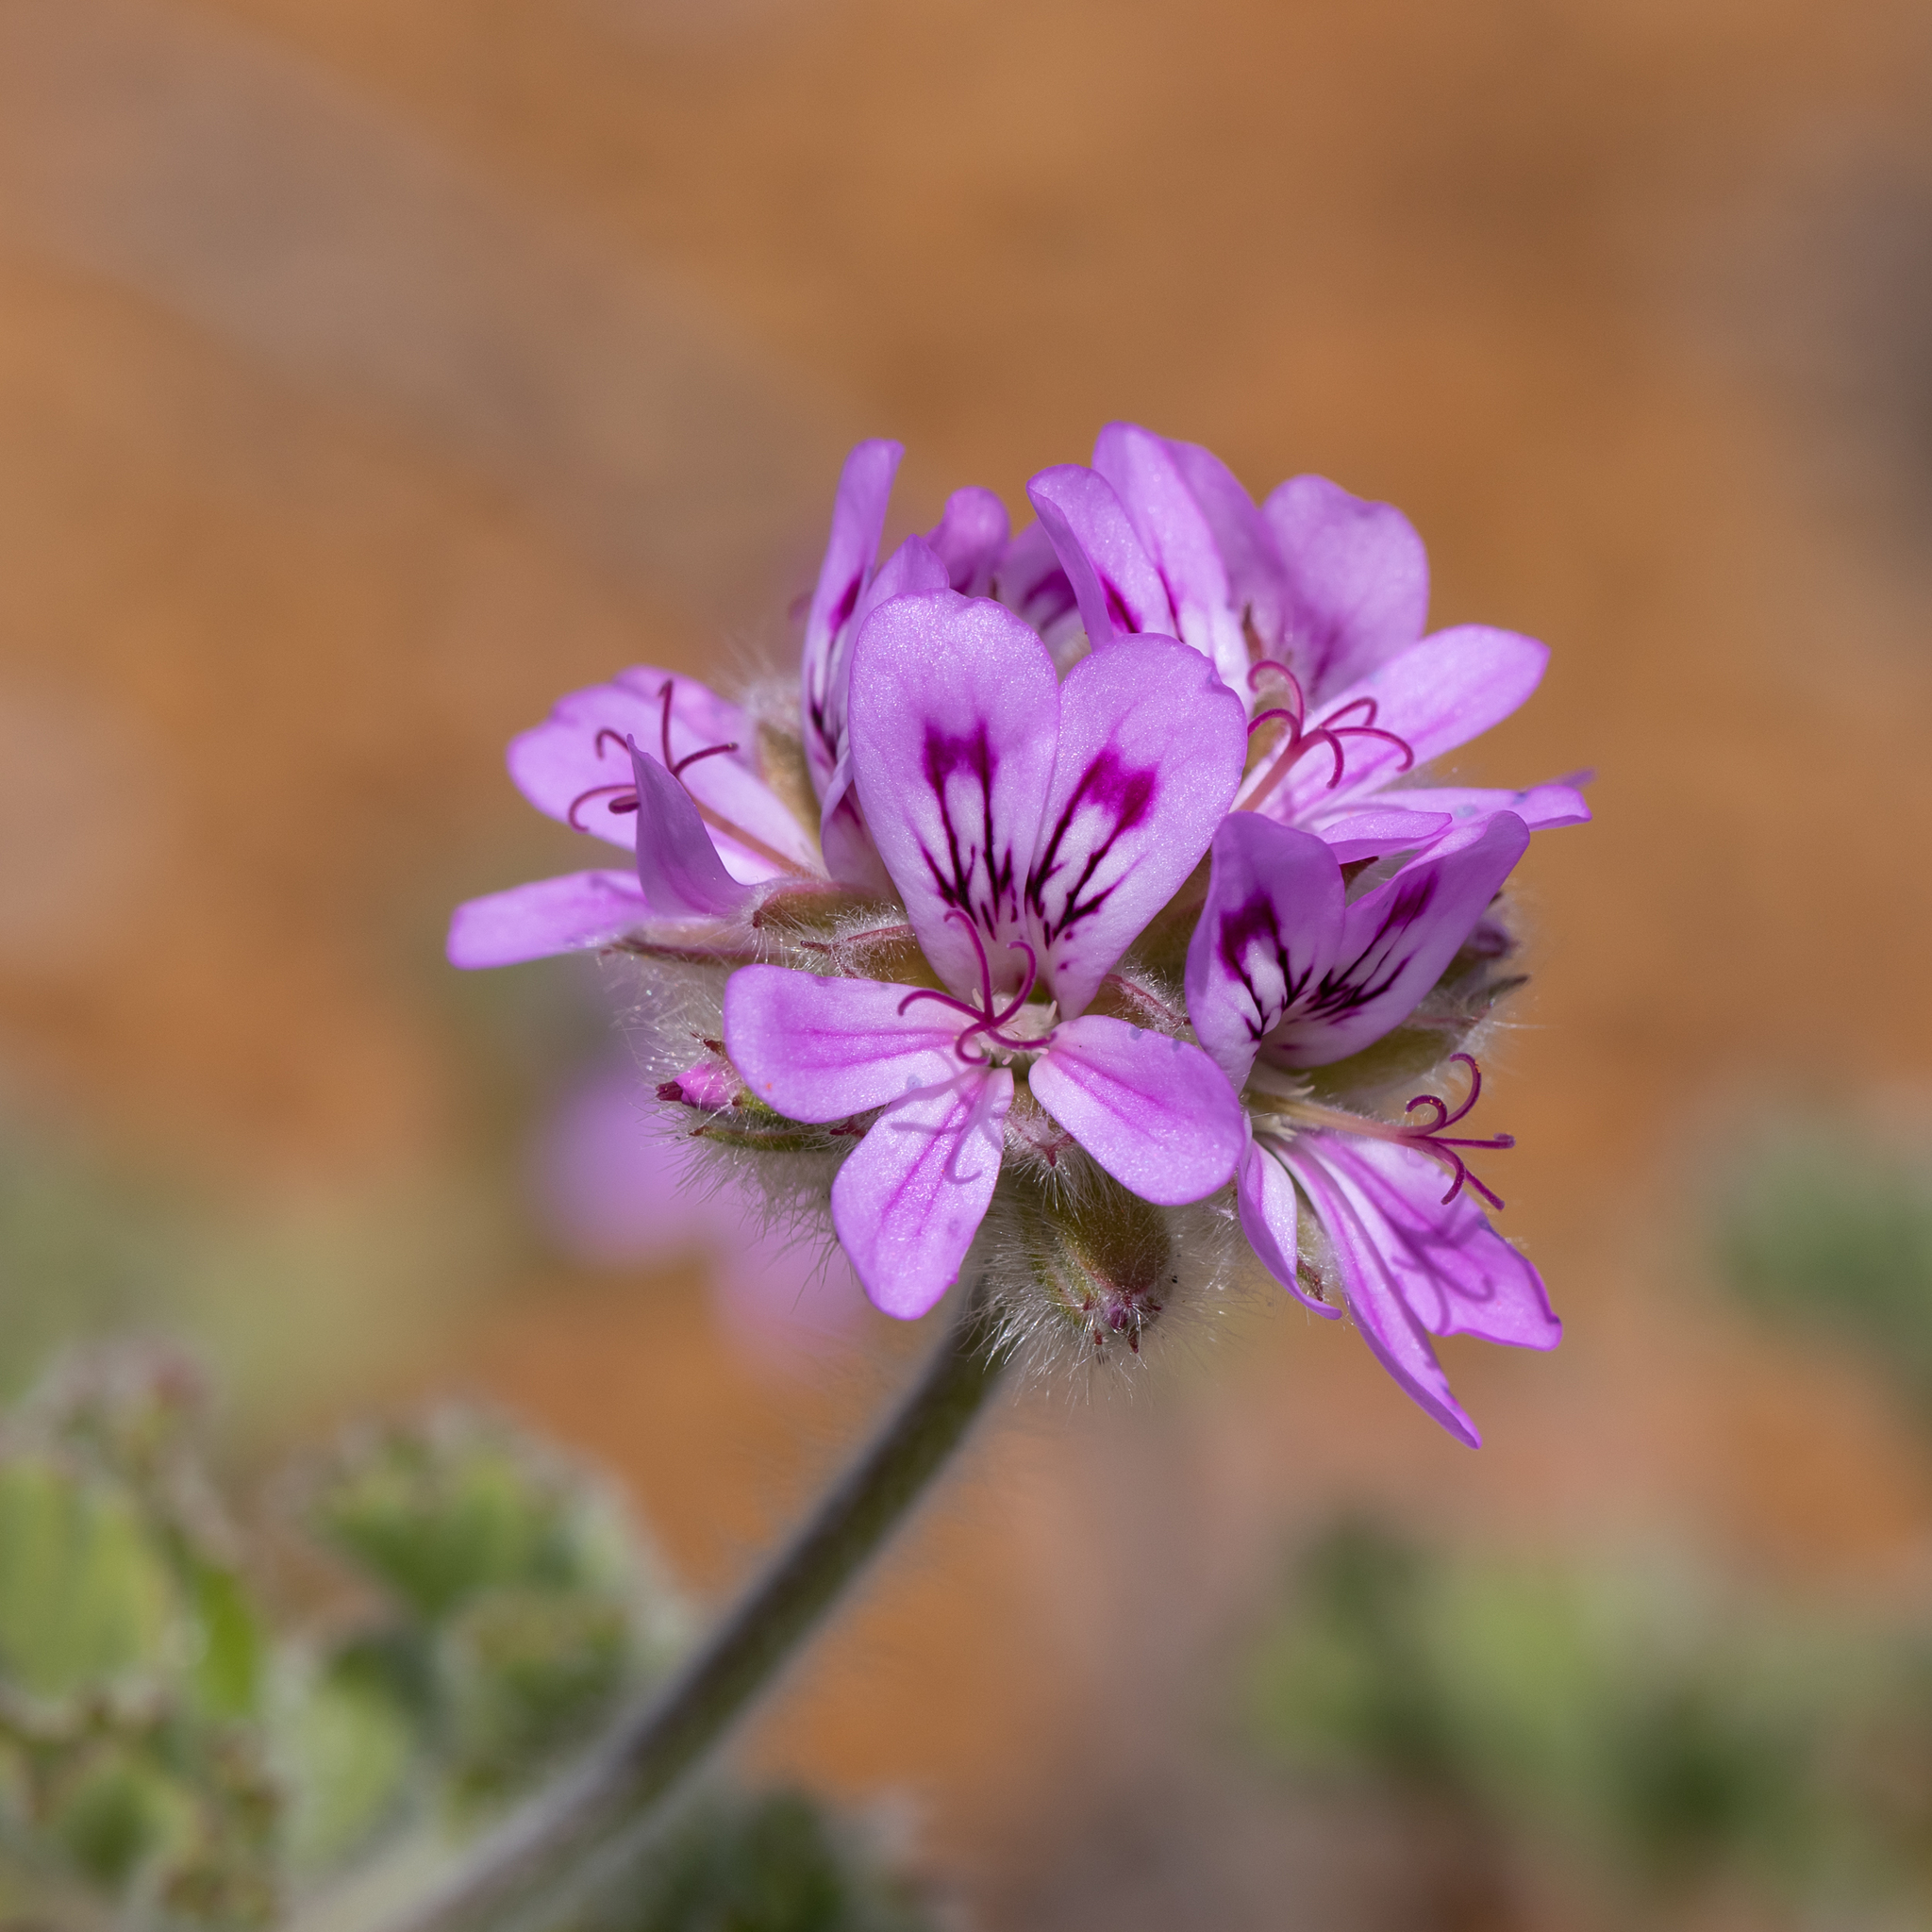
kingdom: Plantae
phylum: Tracheophyta
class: Magnoliopsida
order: Geraniales
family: Geraniaceae
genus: Pelargonium
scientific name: Pelargonium capitatum
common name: Rose scented geranium
